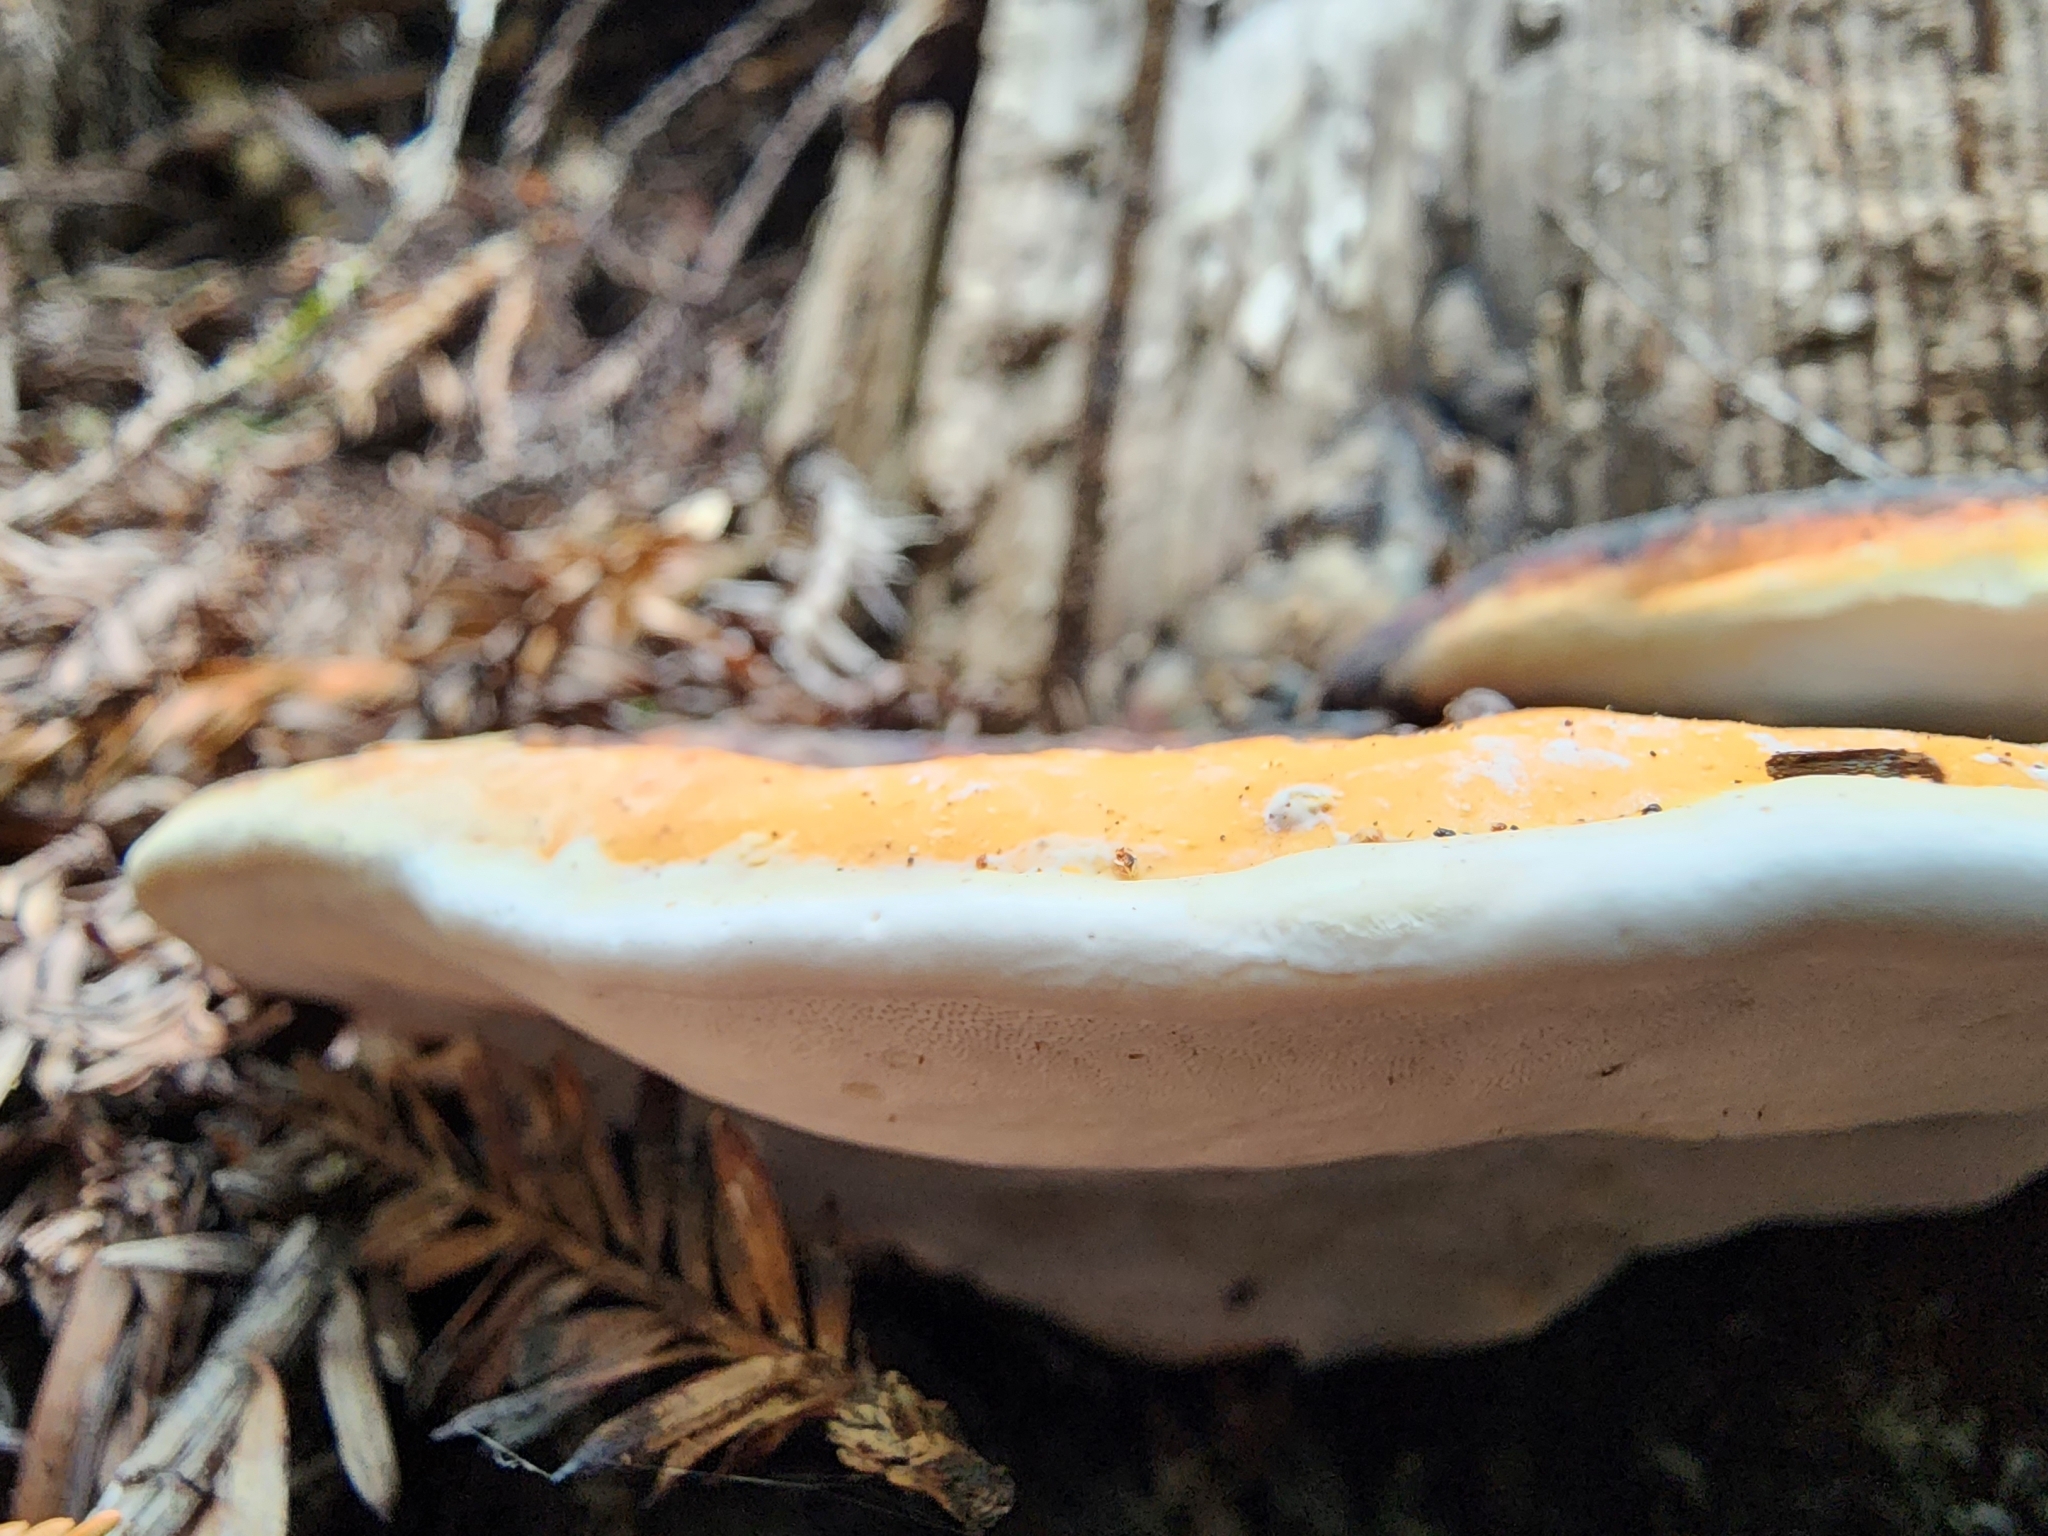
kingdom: Fungi
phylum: Basidiomycota
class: Agaricomycetes
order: Polyporales
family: Fomitopsidaceae
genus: Fomitopsis
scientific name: Fomitopsis mounceae
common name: Northern red belt
